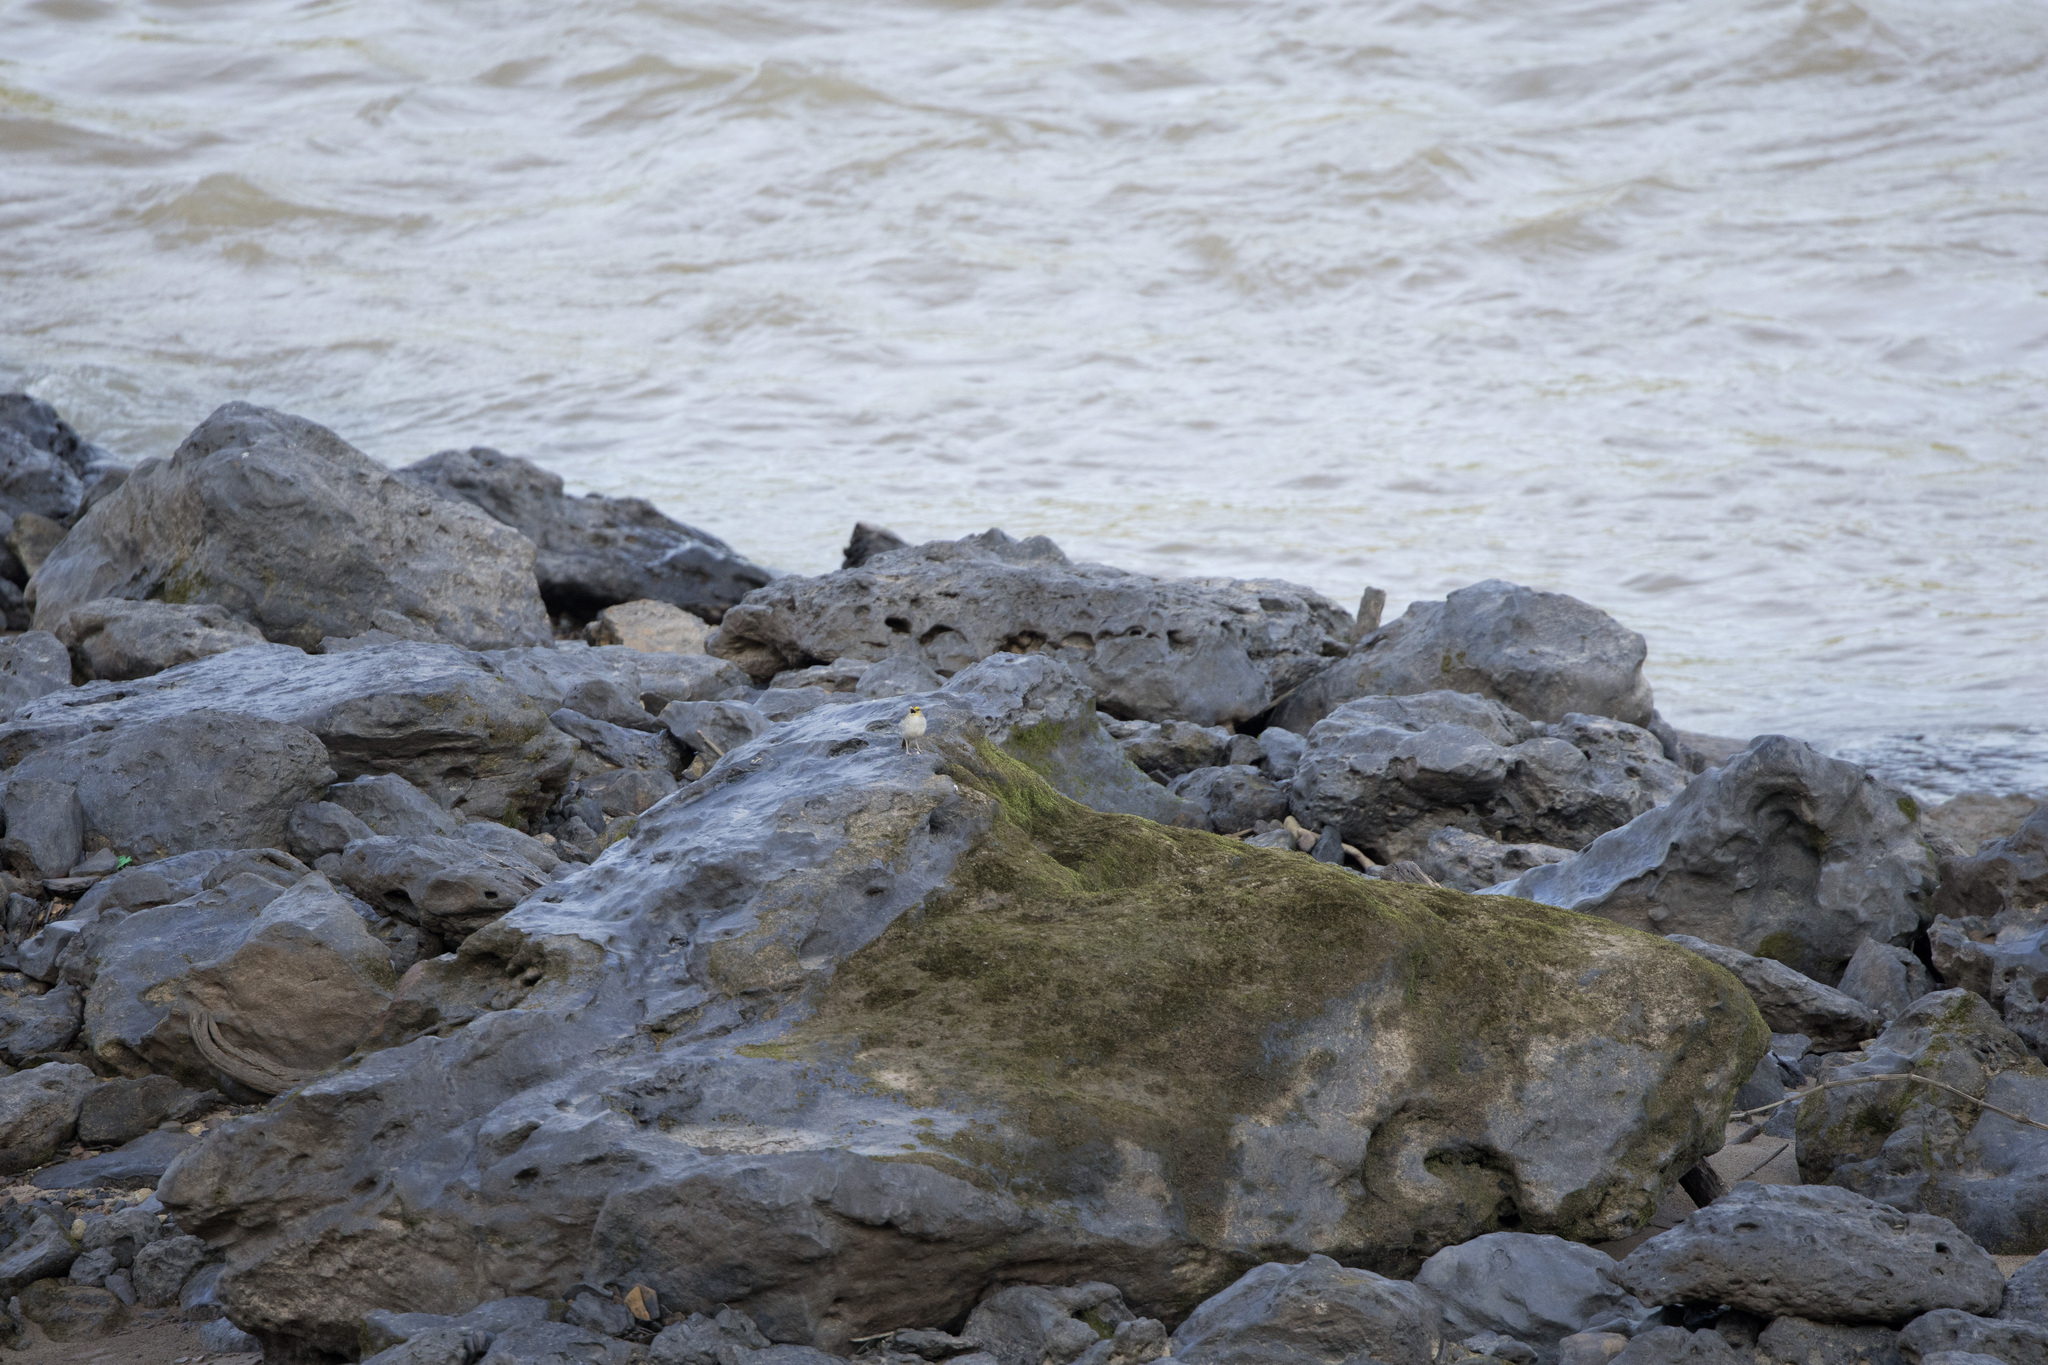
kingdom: Animalia
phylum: Chordata
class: Aves
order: Passeriformes
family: Passerellidae
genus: Ammodramus
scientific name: Ammodramus aurifrons
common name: Yellow-browed sparrow
